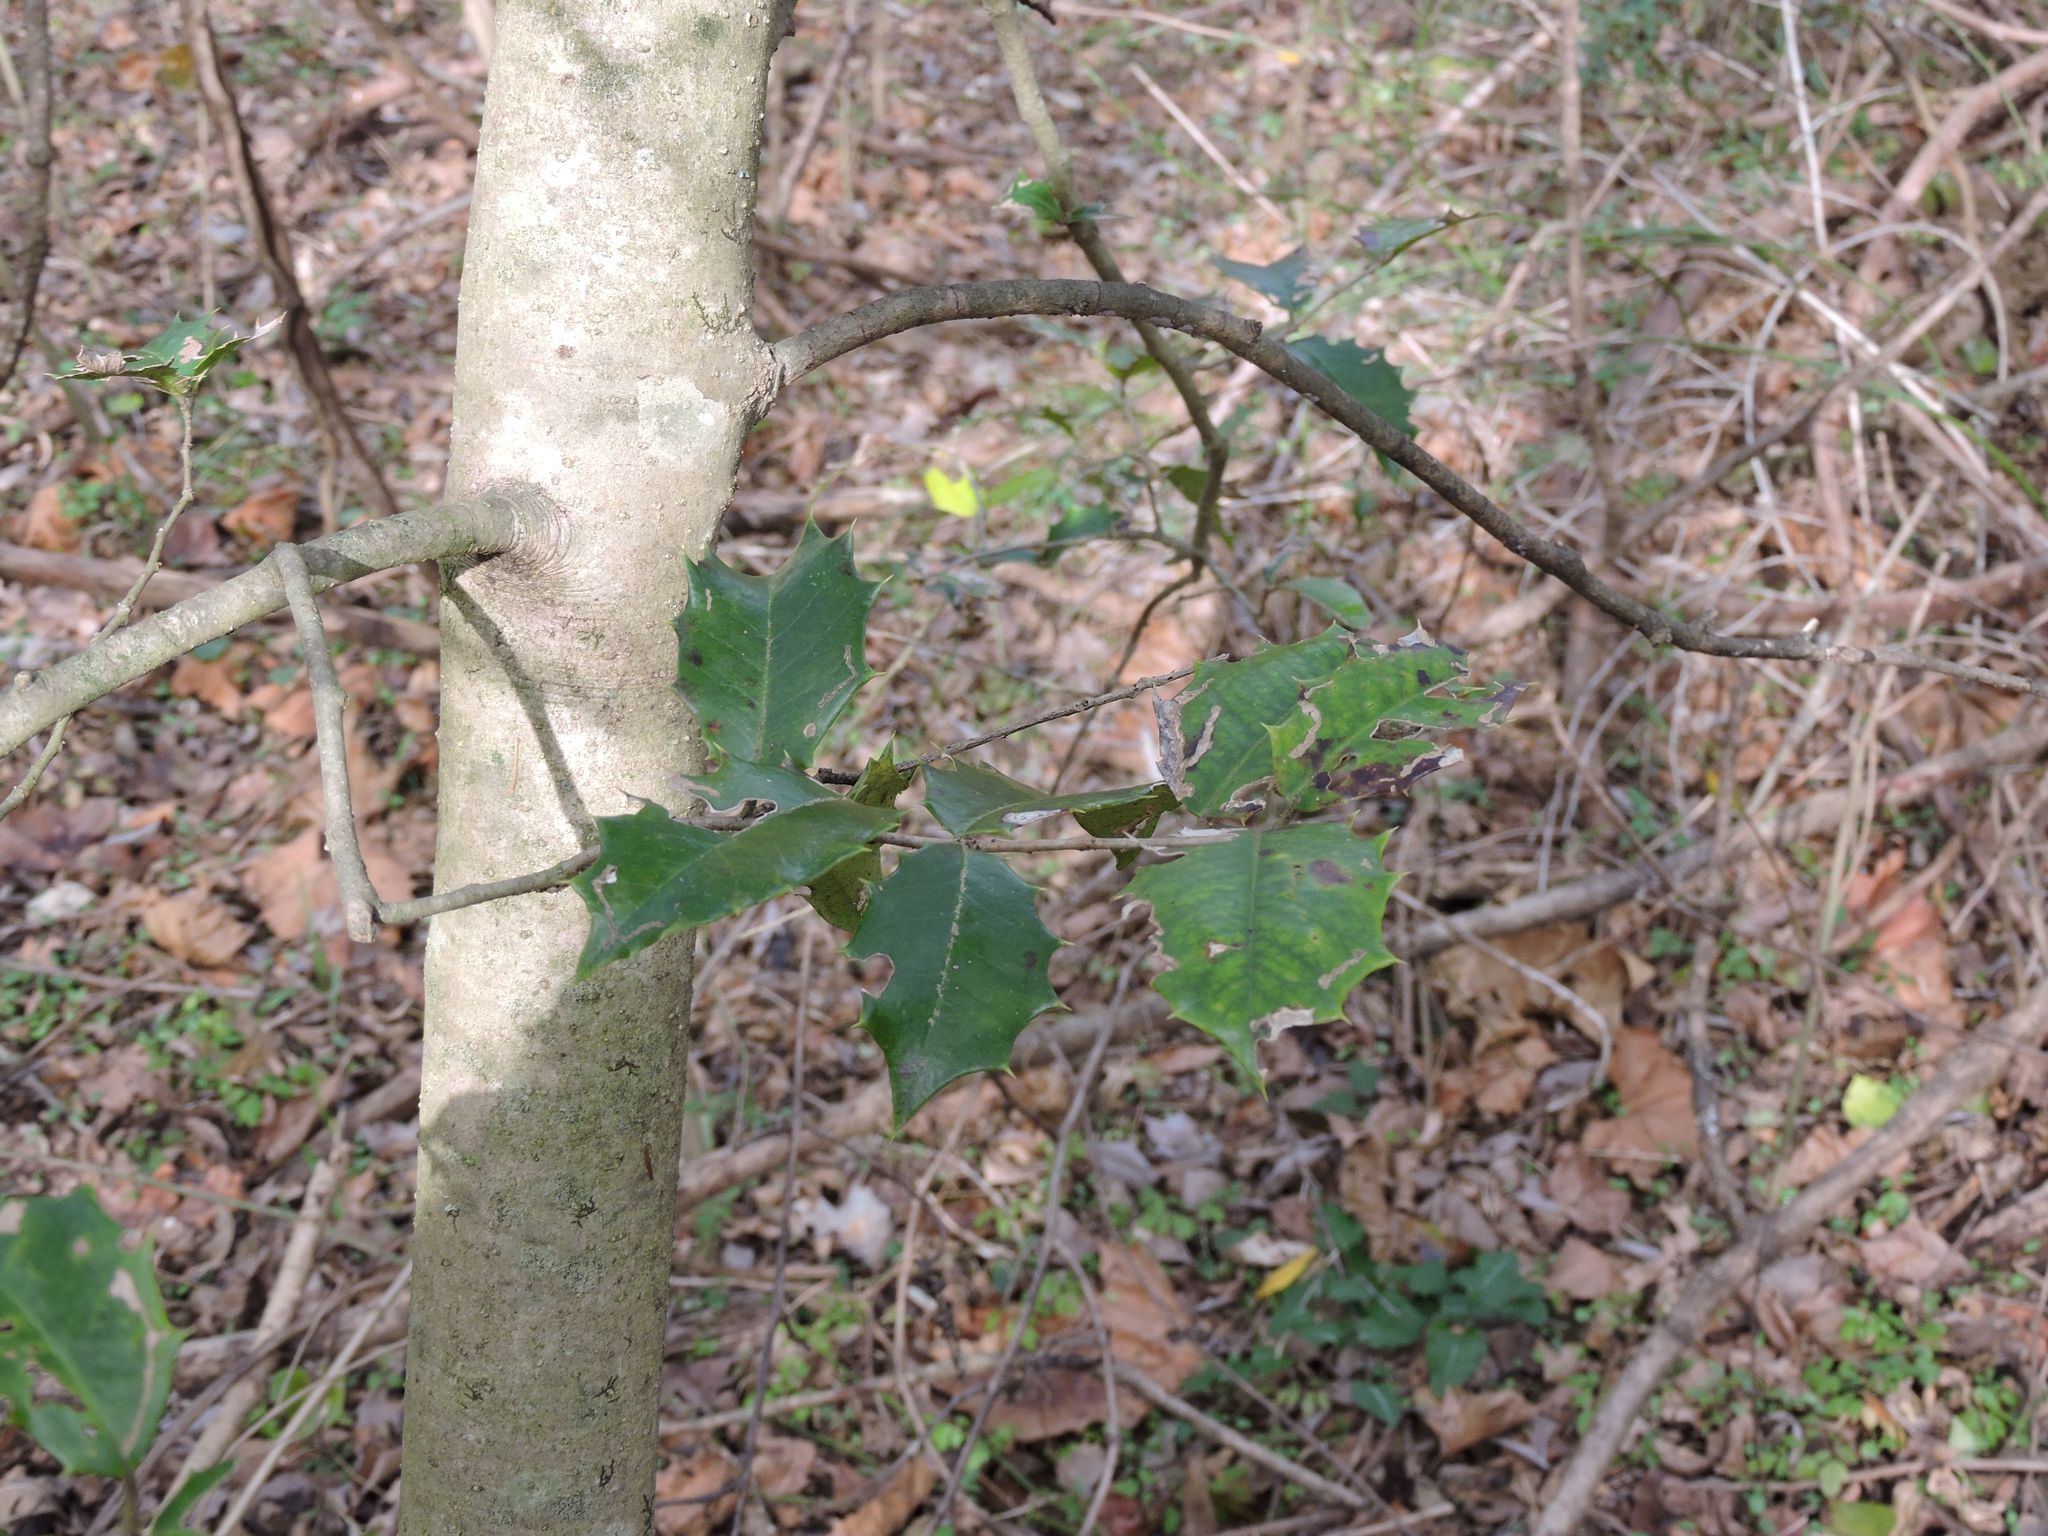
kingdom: Plantae
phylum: Tracheophyta
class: Magnoliopsida
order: Aquifoliales
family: Aquifoliaceae
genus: Ilex
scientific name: Ilex opaca
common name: American holly
